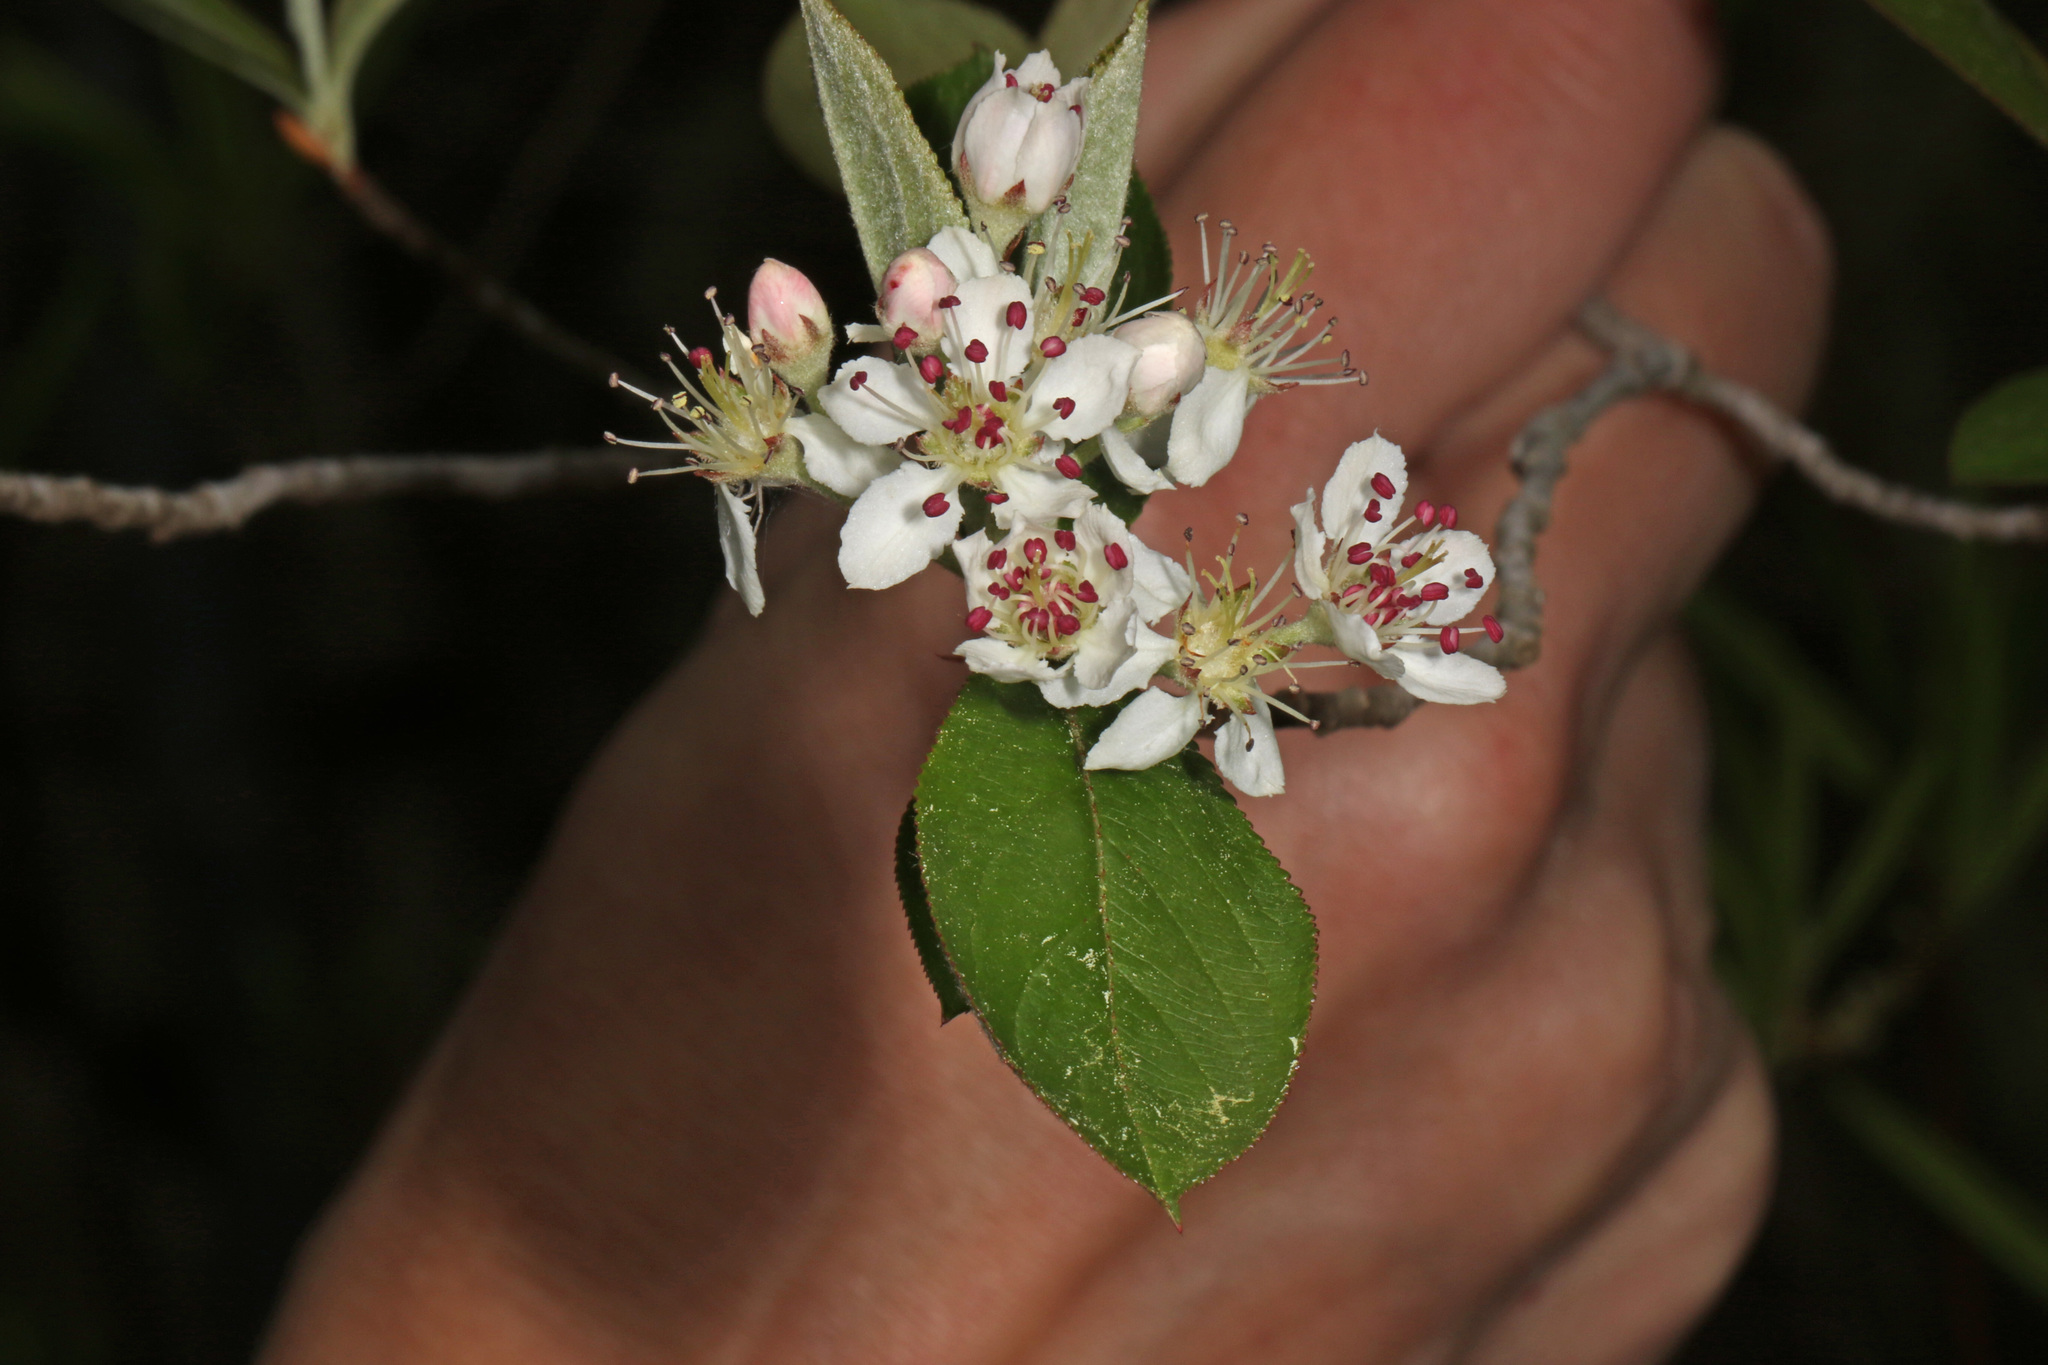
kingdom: Plantae
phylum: Tracheophyta
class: Magnoliopsida
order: Rosales
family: Rosaceae
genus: Aronia
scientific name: Aronia arbutifolia
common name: Red chokeberry
